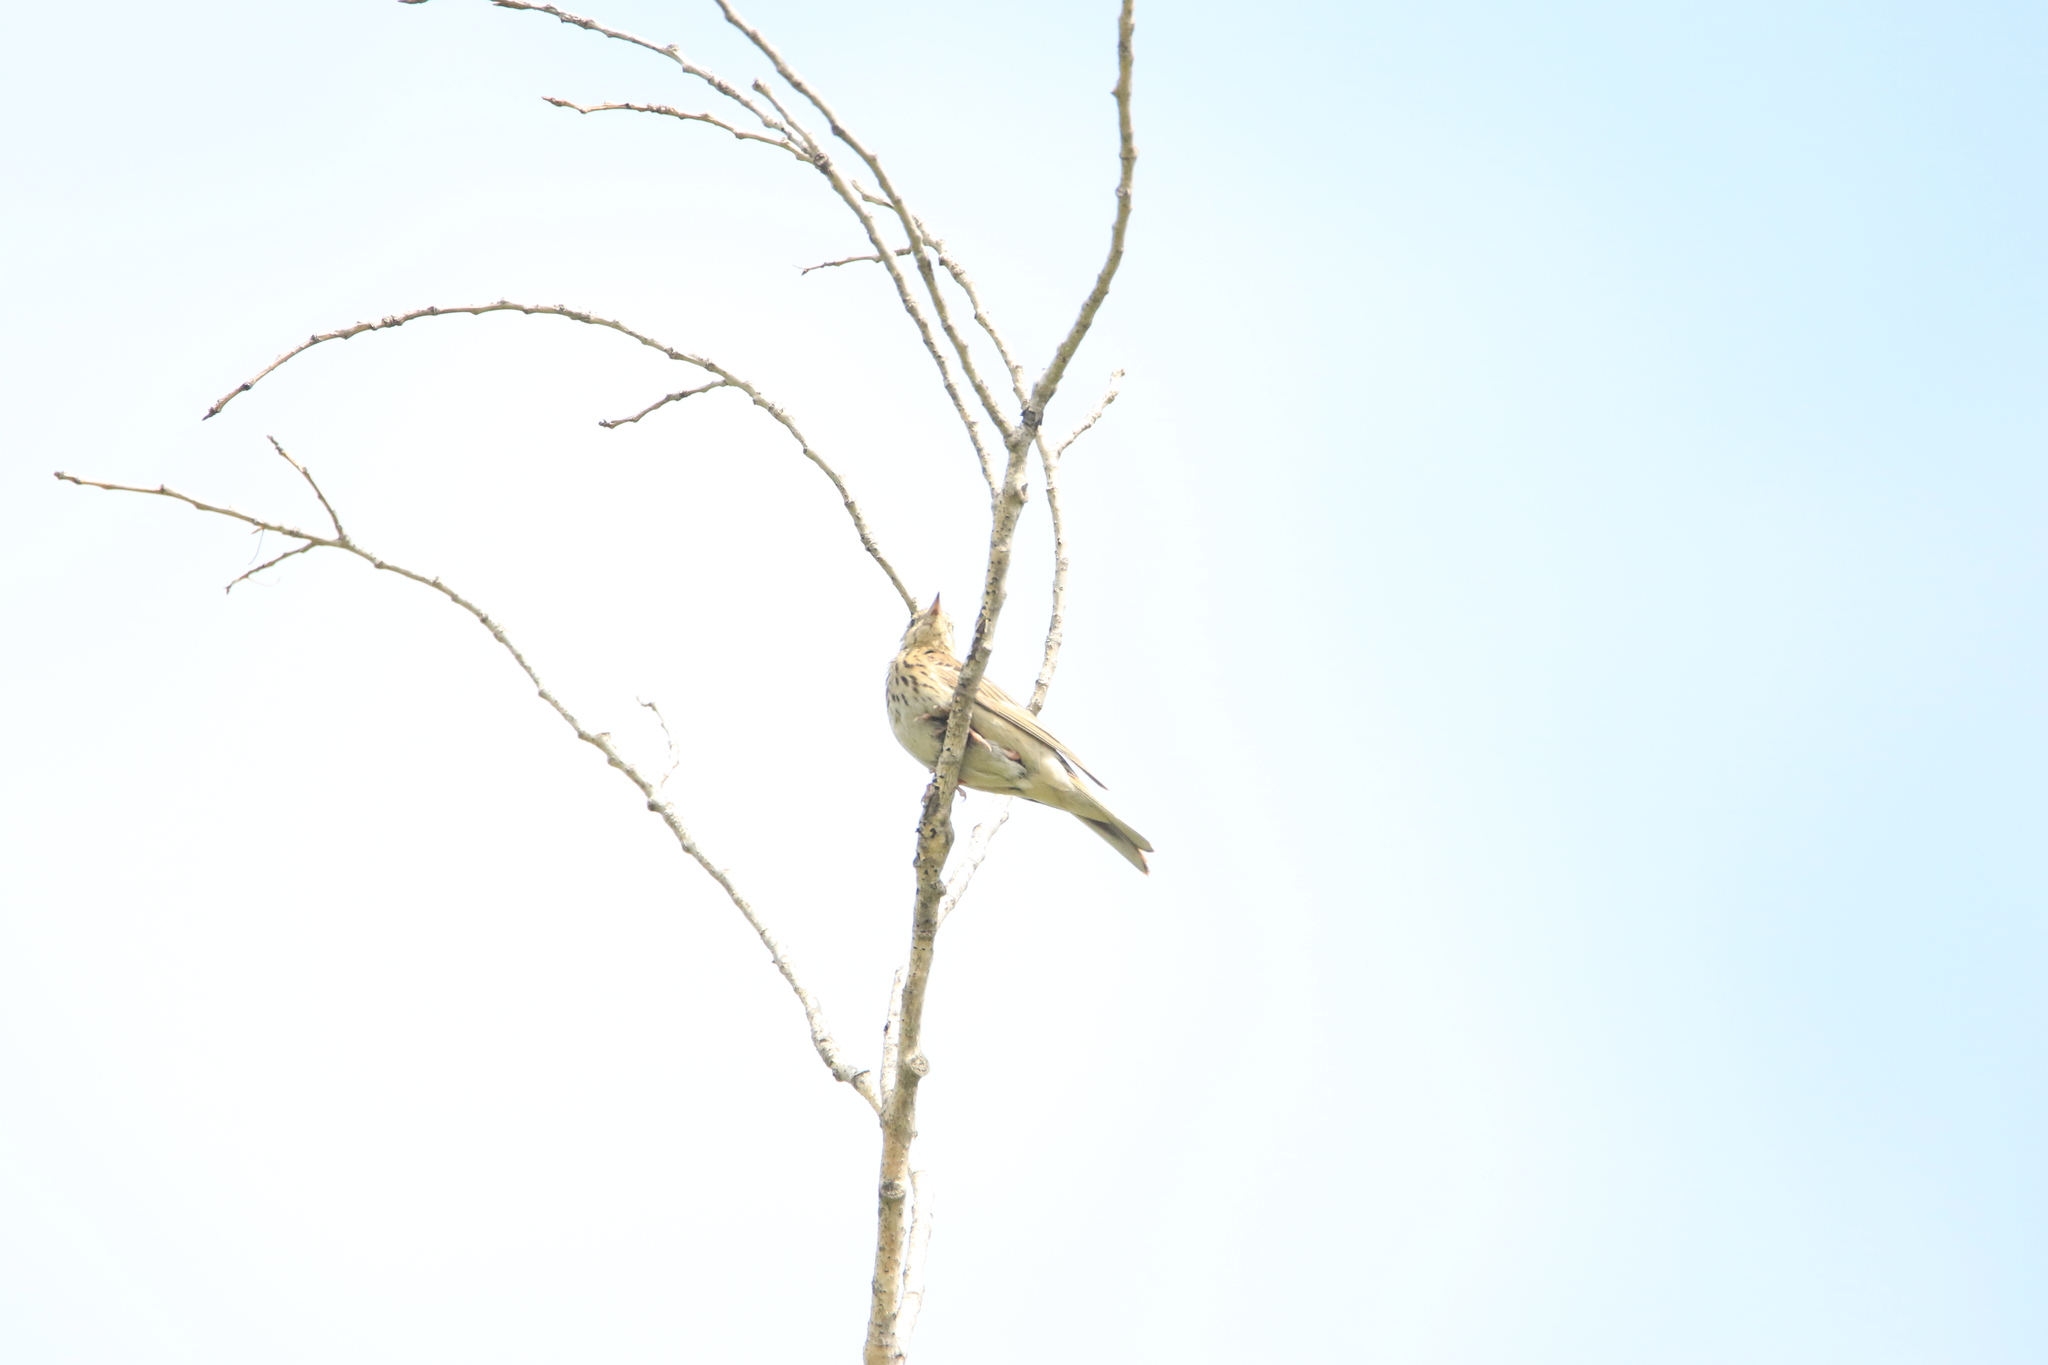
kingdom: Animalia
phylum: Chordata
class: Aves
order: Passeriformes
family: Motacillidae
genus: Anthus
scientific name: Anthus trivialis
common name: Tree pipit
